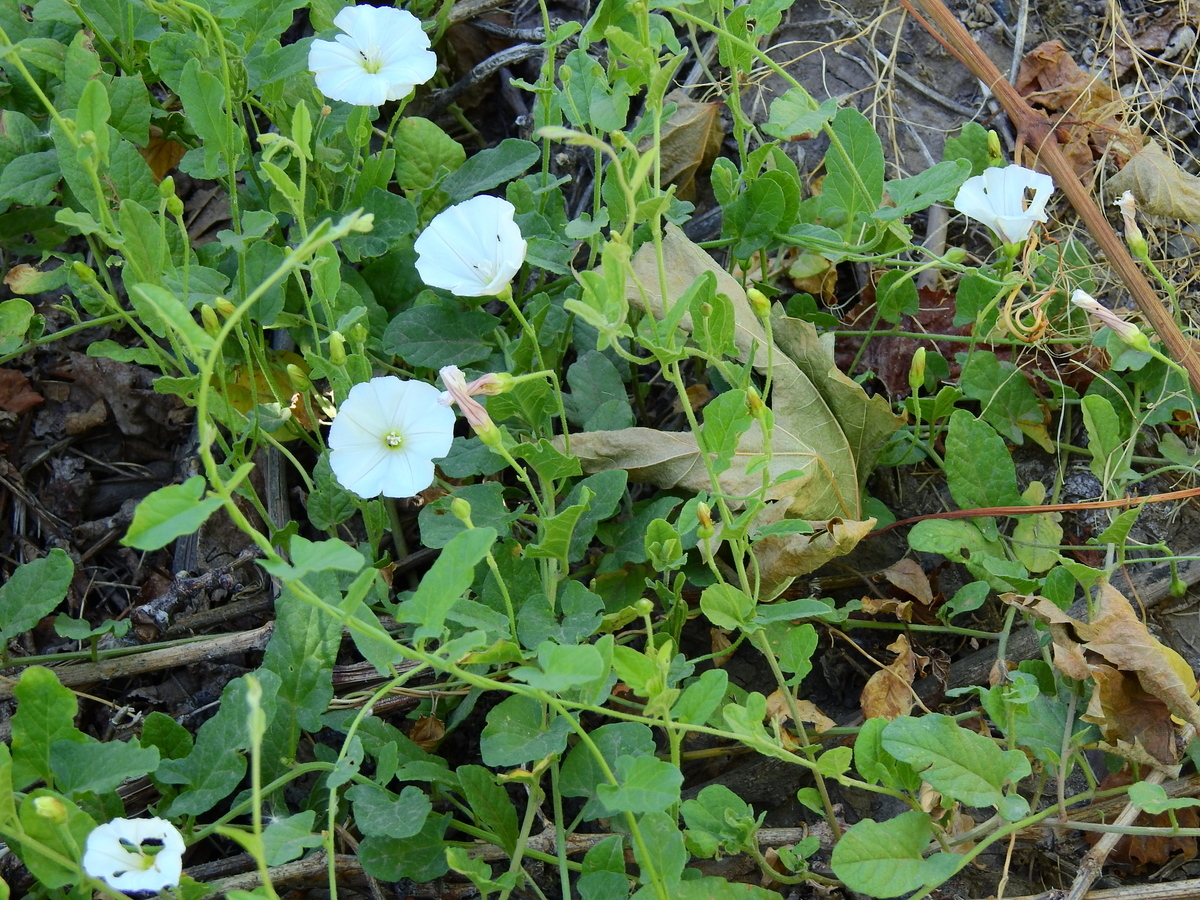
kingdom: Plantae
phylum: Tracheophyta
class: Magnoliopsida
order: Solanales
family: Convolvulaceae
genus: Convolvulus
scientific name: Convolvulus arvensis
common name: Field bindweed
